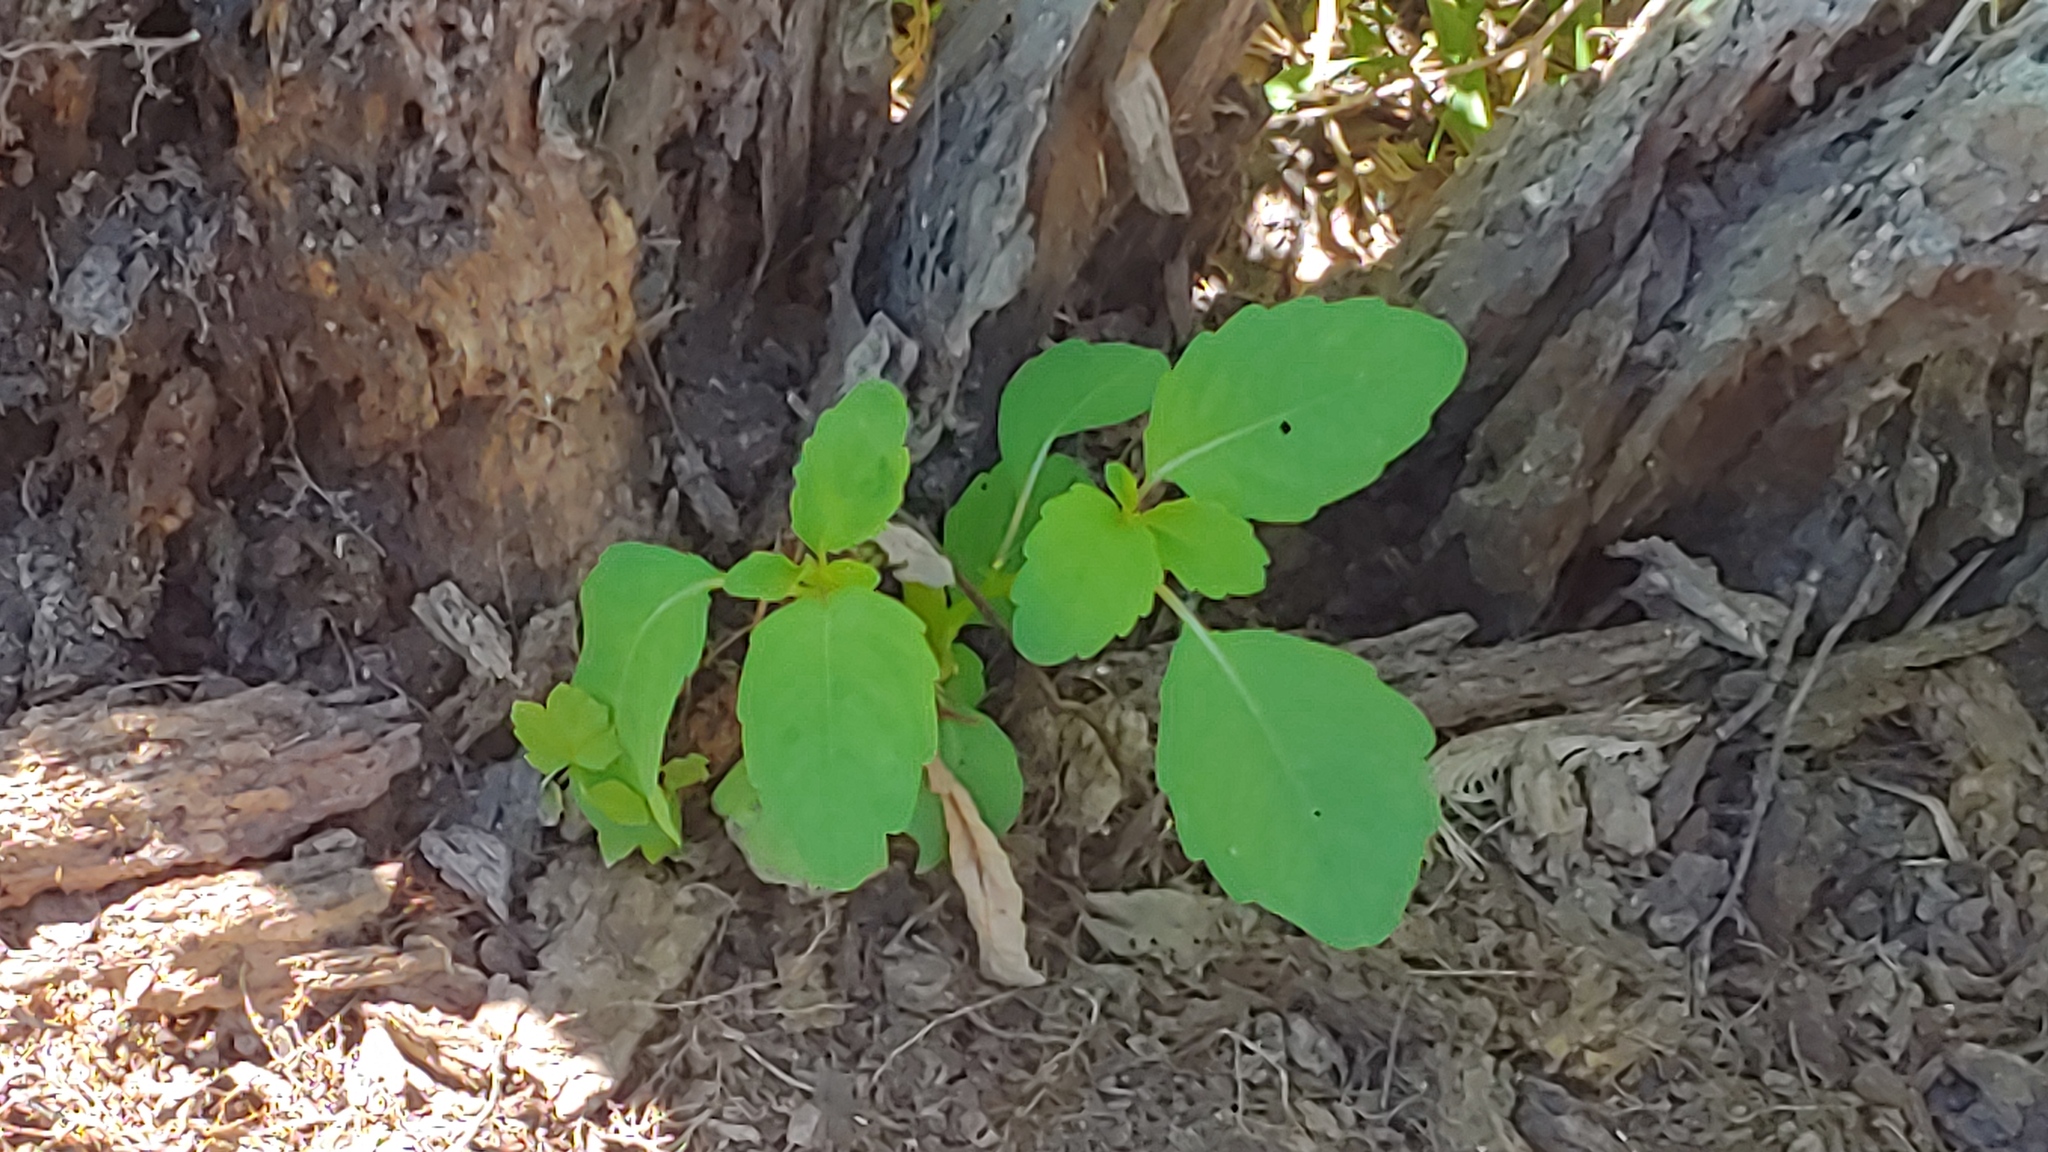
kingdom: Plantae
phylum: Tracheophyta
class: Magnoliopsida
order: Ericales
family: Balsaminaceae
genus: Impatiens
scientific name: Impatiens capensis
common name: Orange balsam
